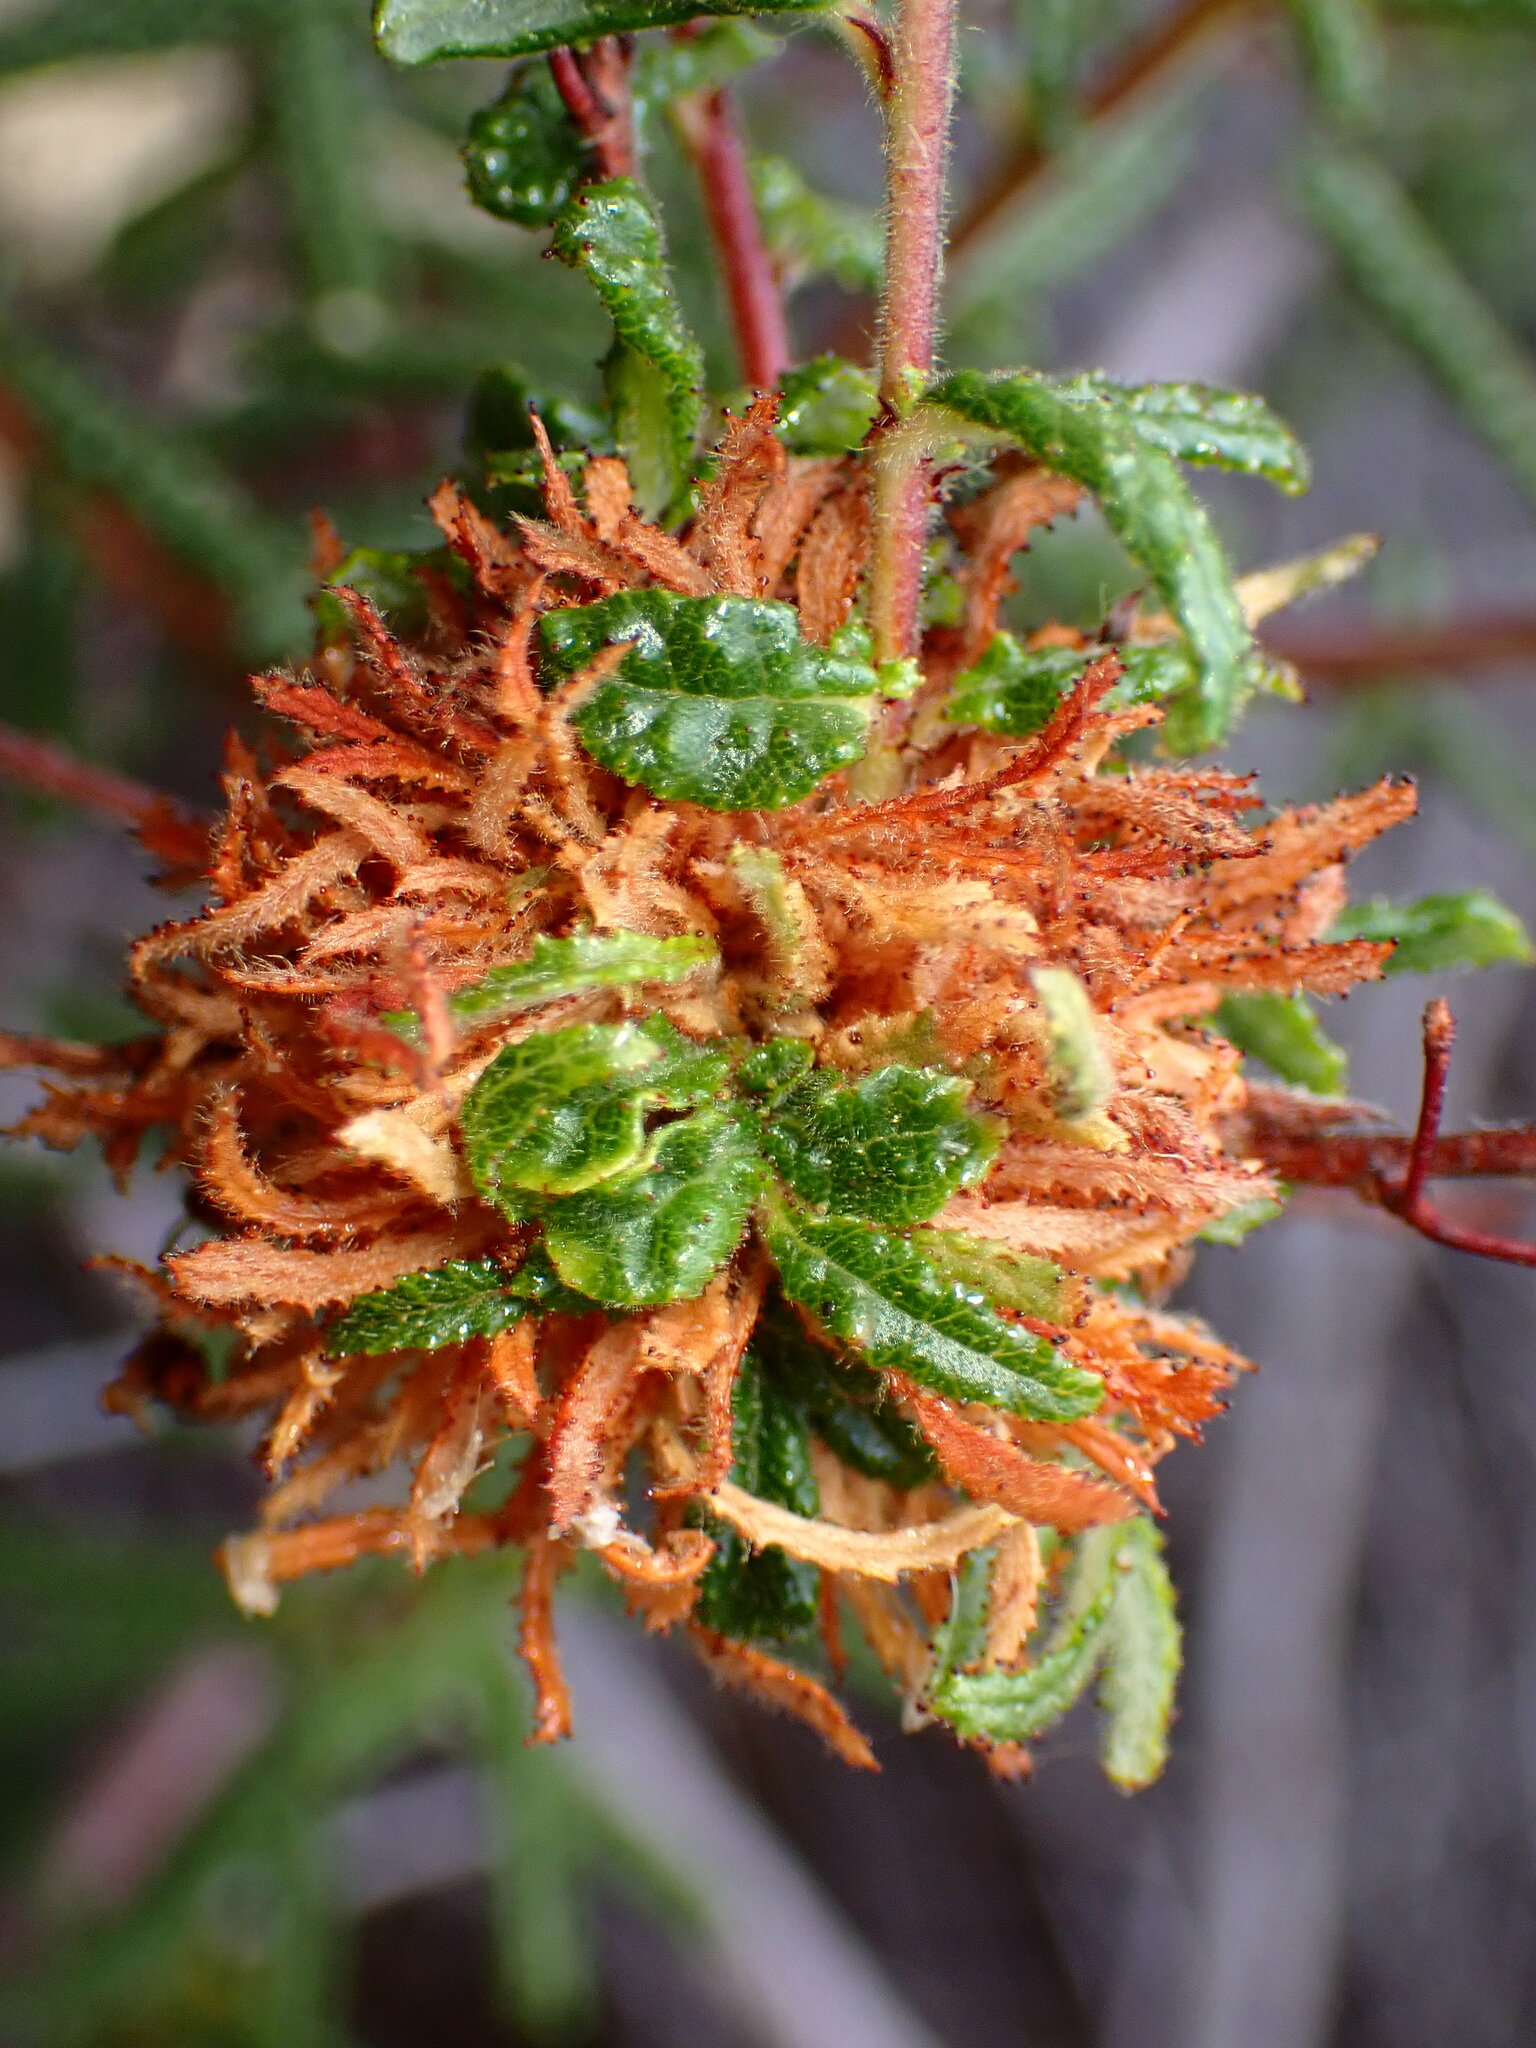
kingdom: Animalia
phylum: Arthropoda
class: Insecta
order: Diptera
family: Cecidomyiidae
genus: Asphondylia
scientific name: Asphondylia ceanothi
